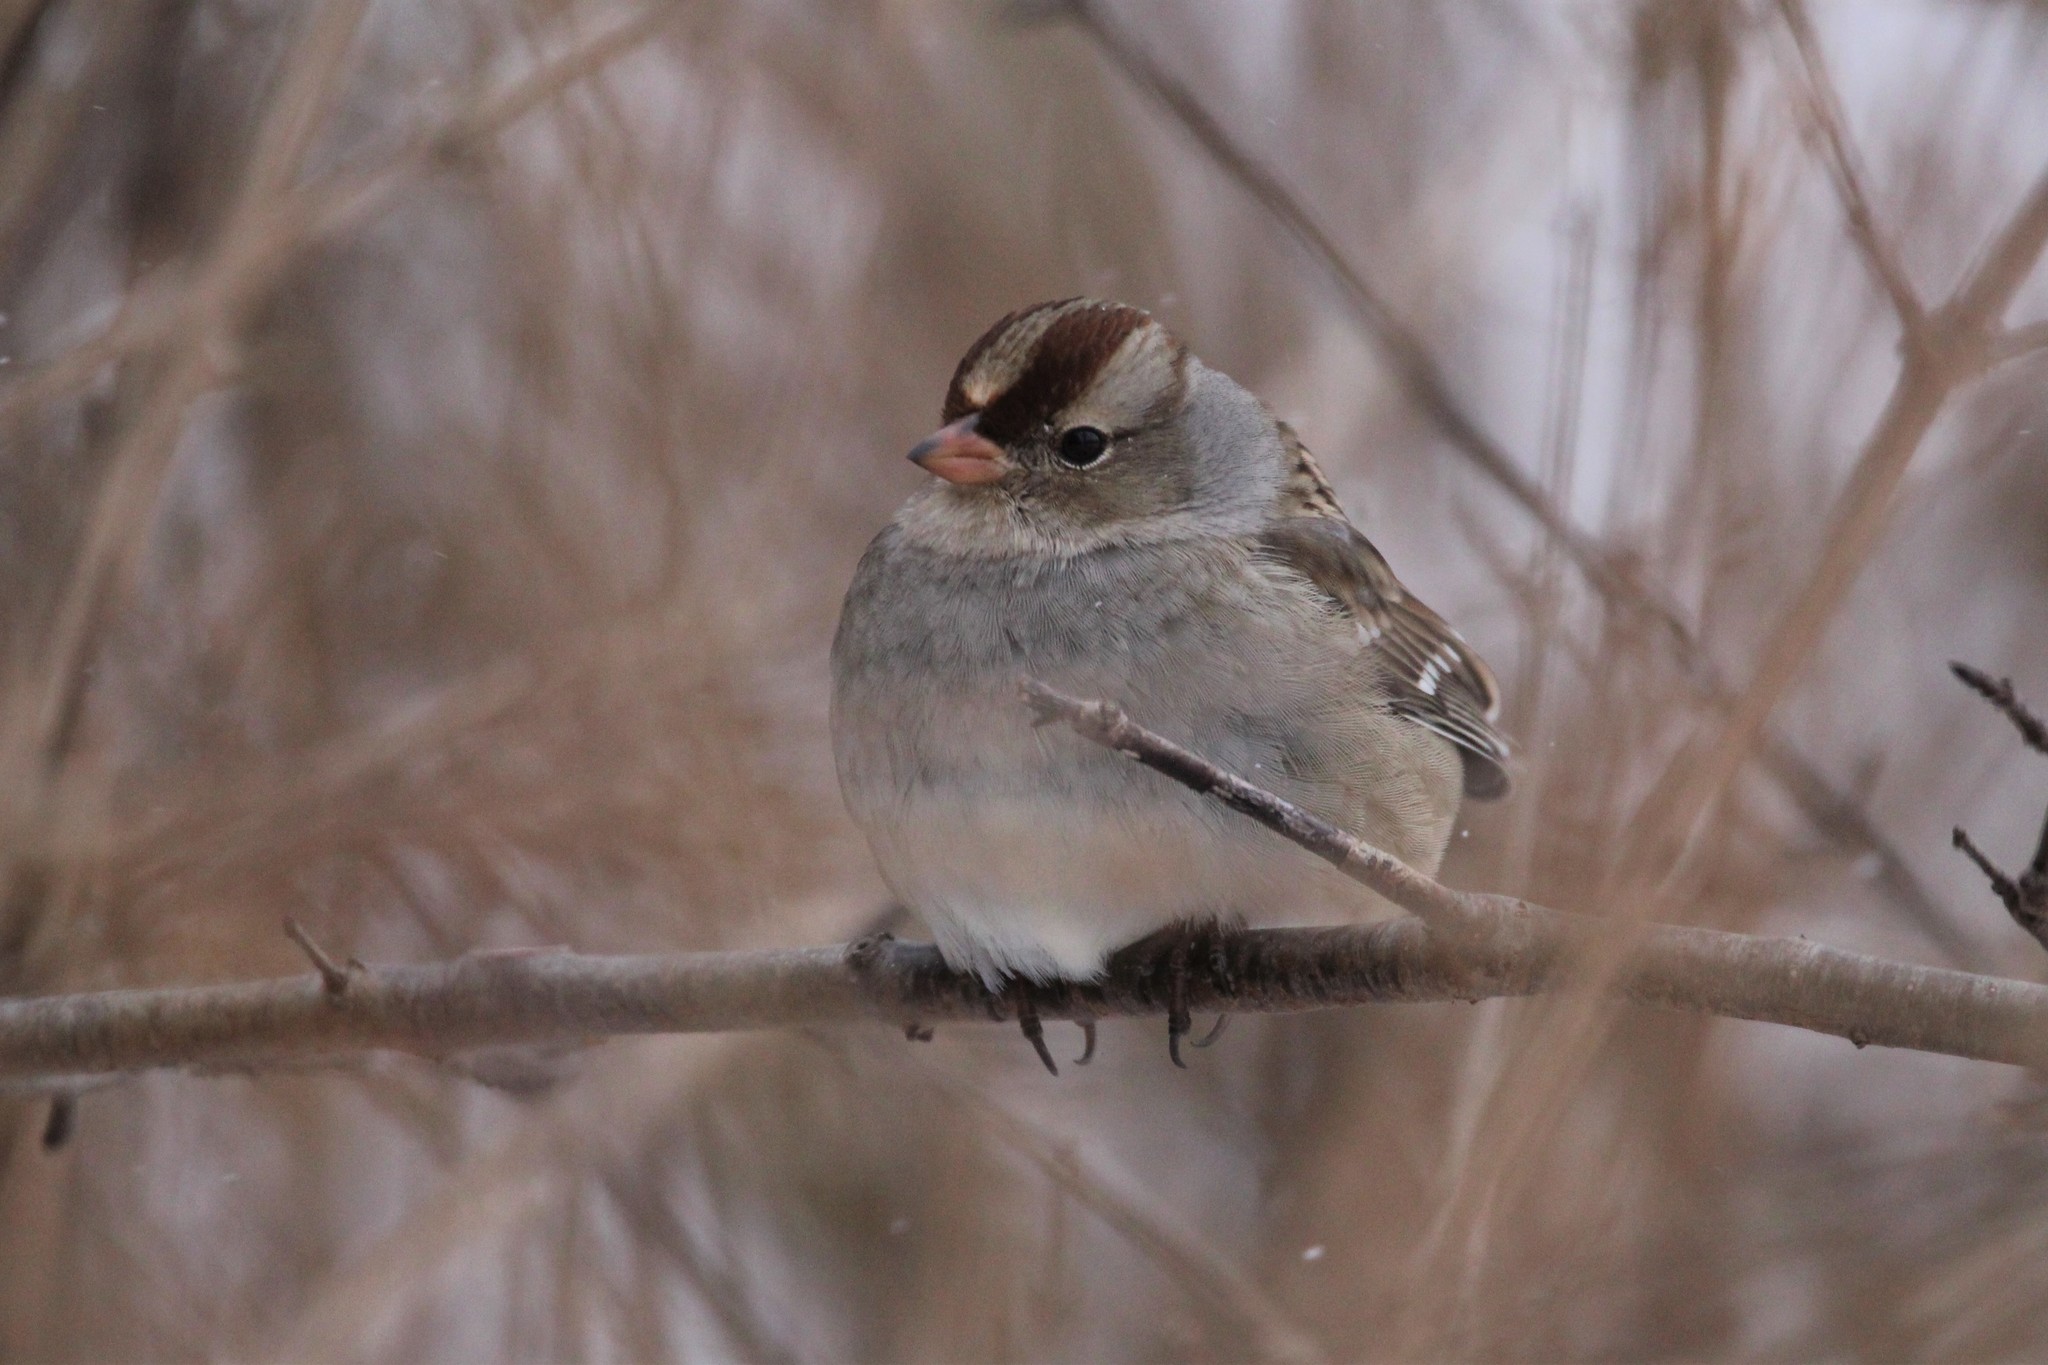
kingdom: Animalia
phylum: Chordata
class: Aves
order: Passeriformes
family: Passerellidae
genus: Zonotrichia
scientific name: Zonotrichia leucophrys
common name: White-crowned sparrow
